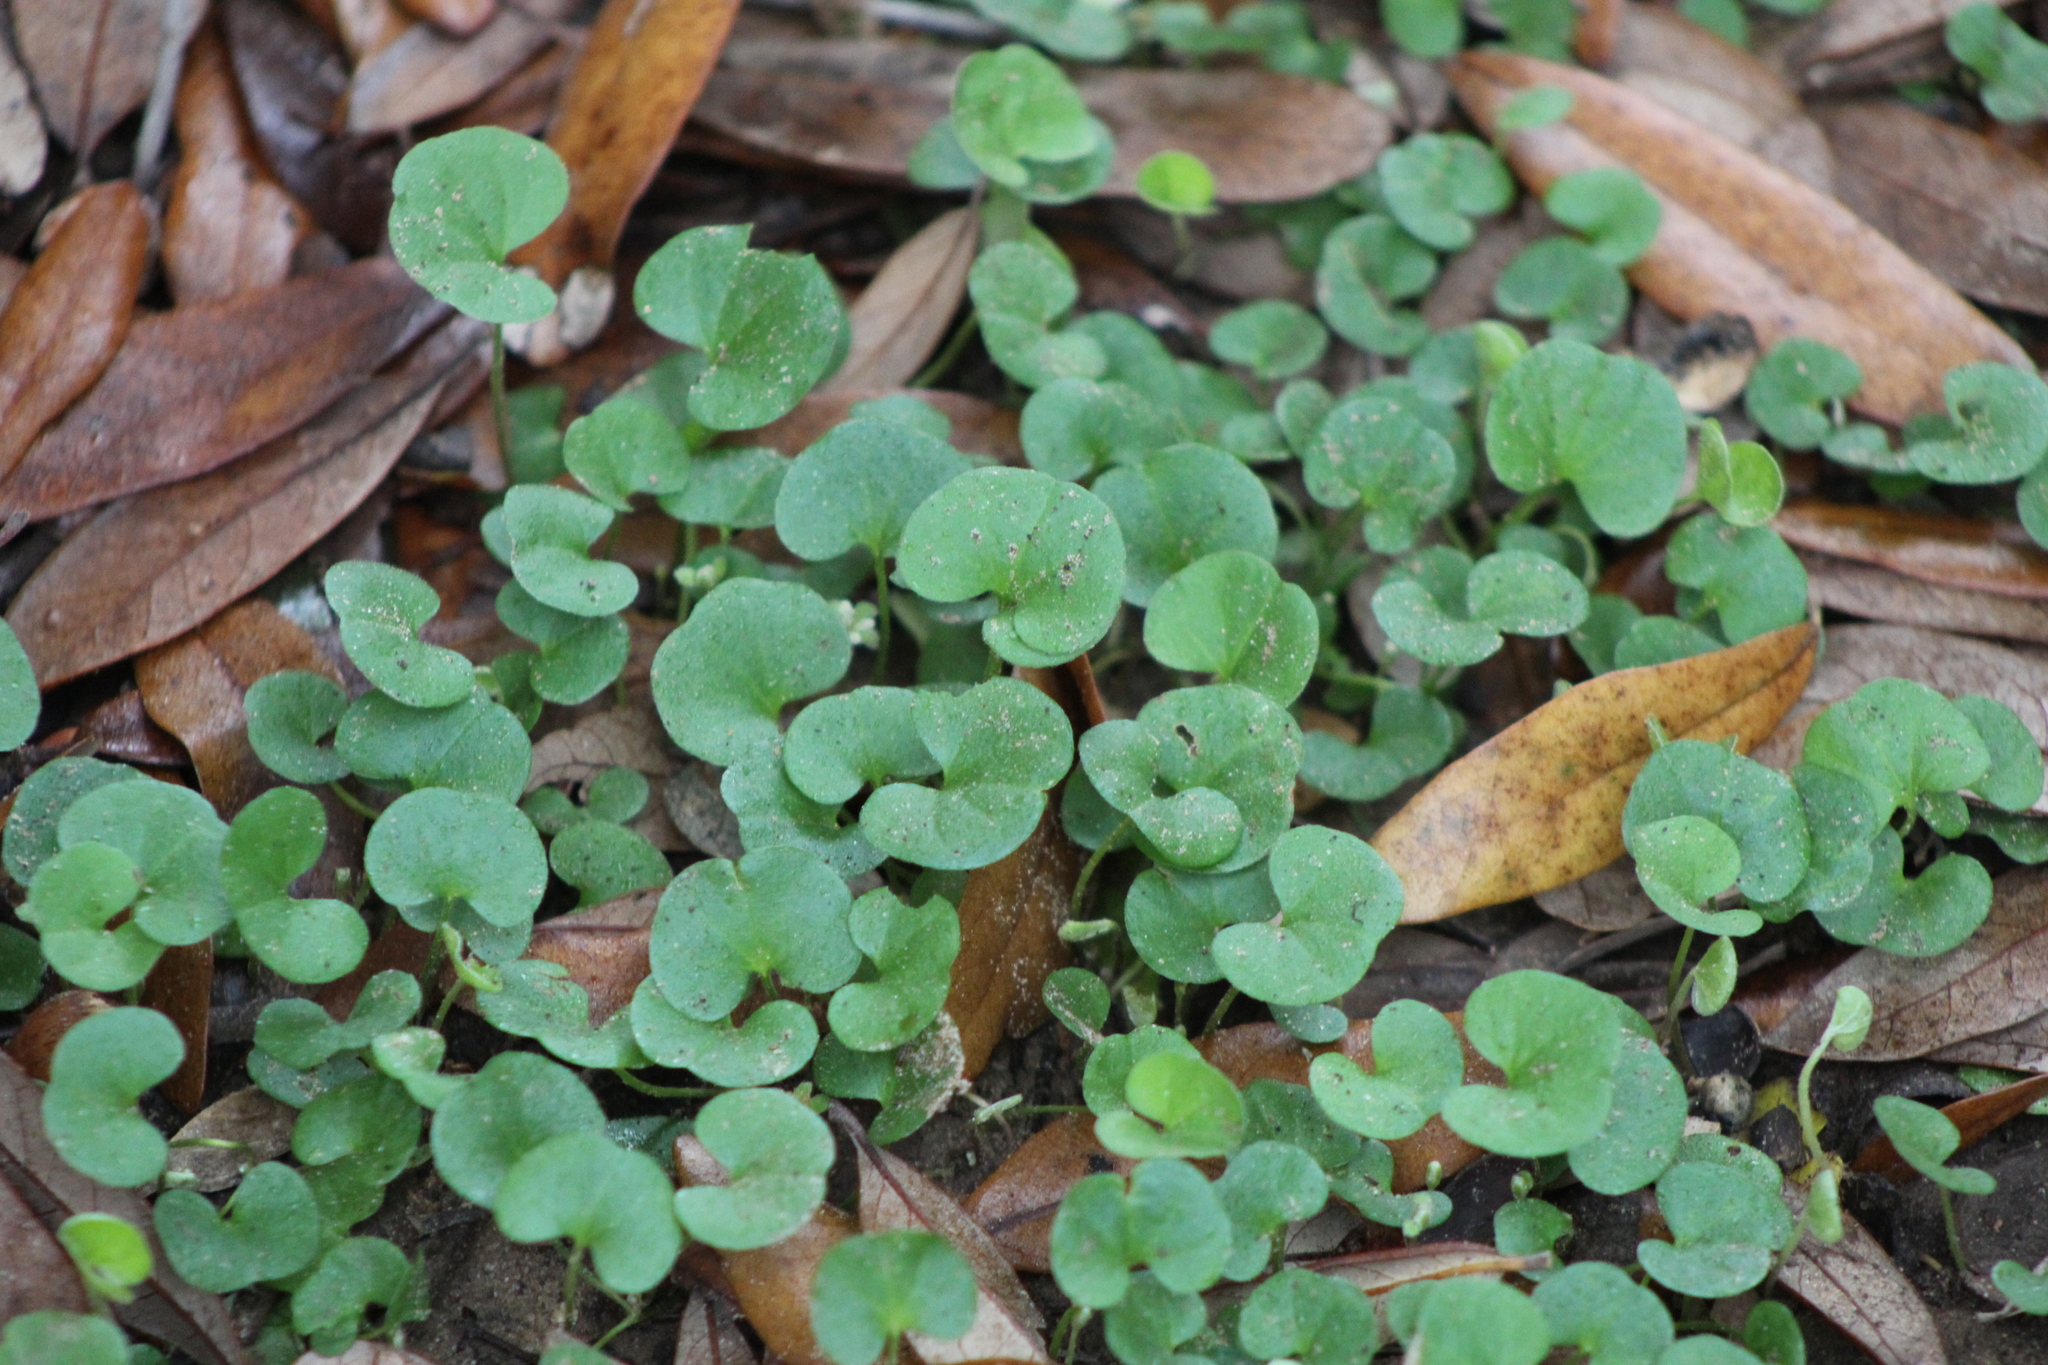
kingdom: Plantae
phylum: Tracheophyta
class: Magnoliopsida
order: Solanales
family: Convolvulaceae
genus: Dichondra
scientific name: Dichondra carolinensis
